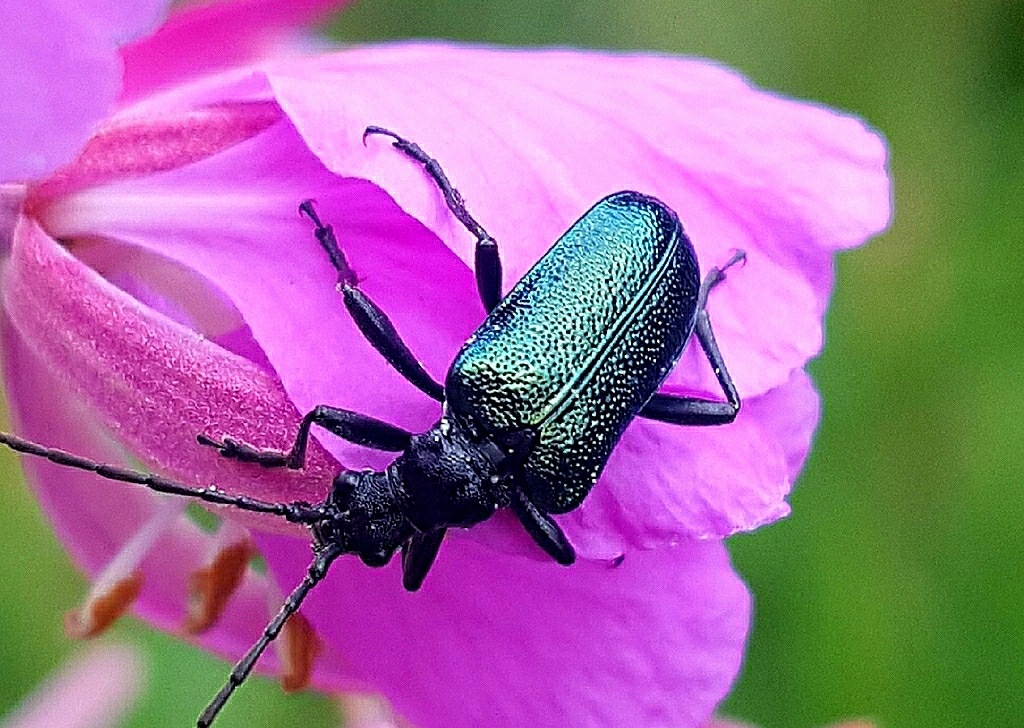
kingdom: Animalia
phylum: Arthropoda
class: Insecta
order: Coleoptera
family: Cerambycidae
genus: Gaurotes
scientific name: Gaurotes virginea
